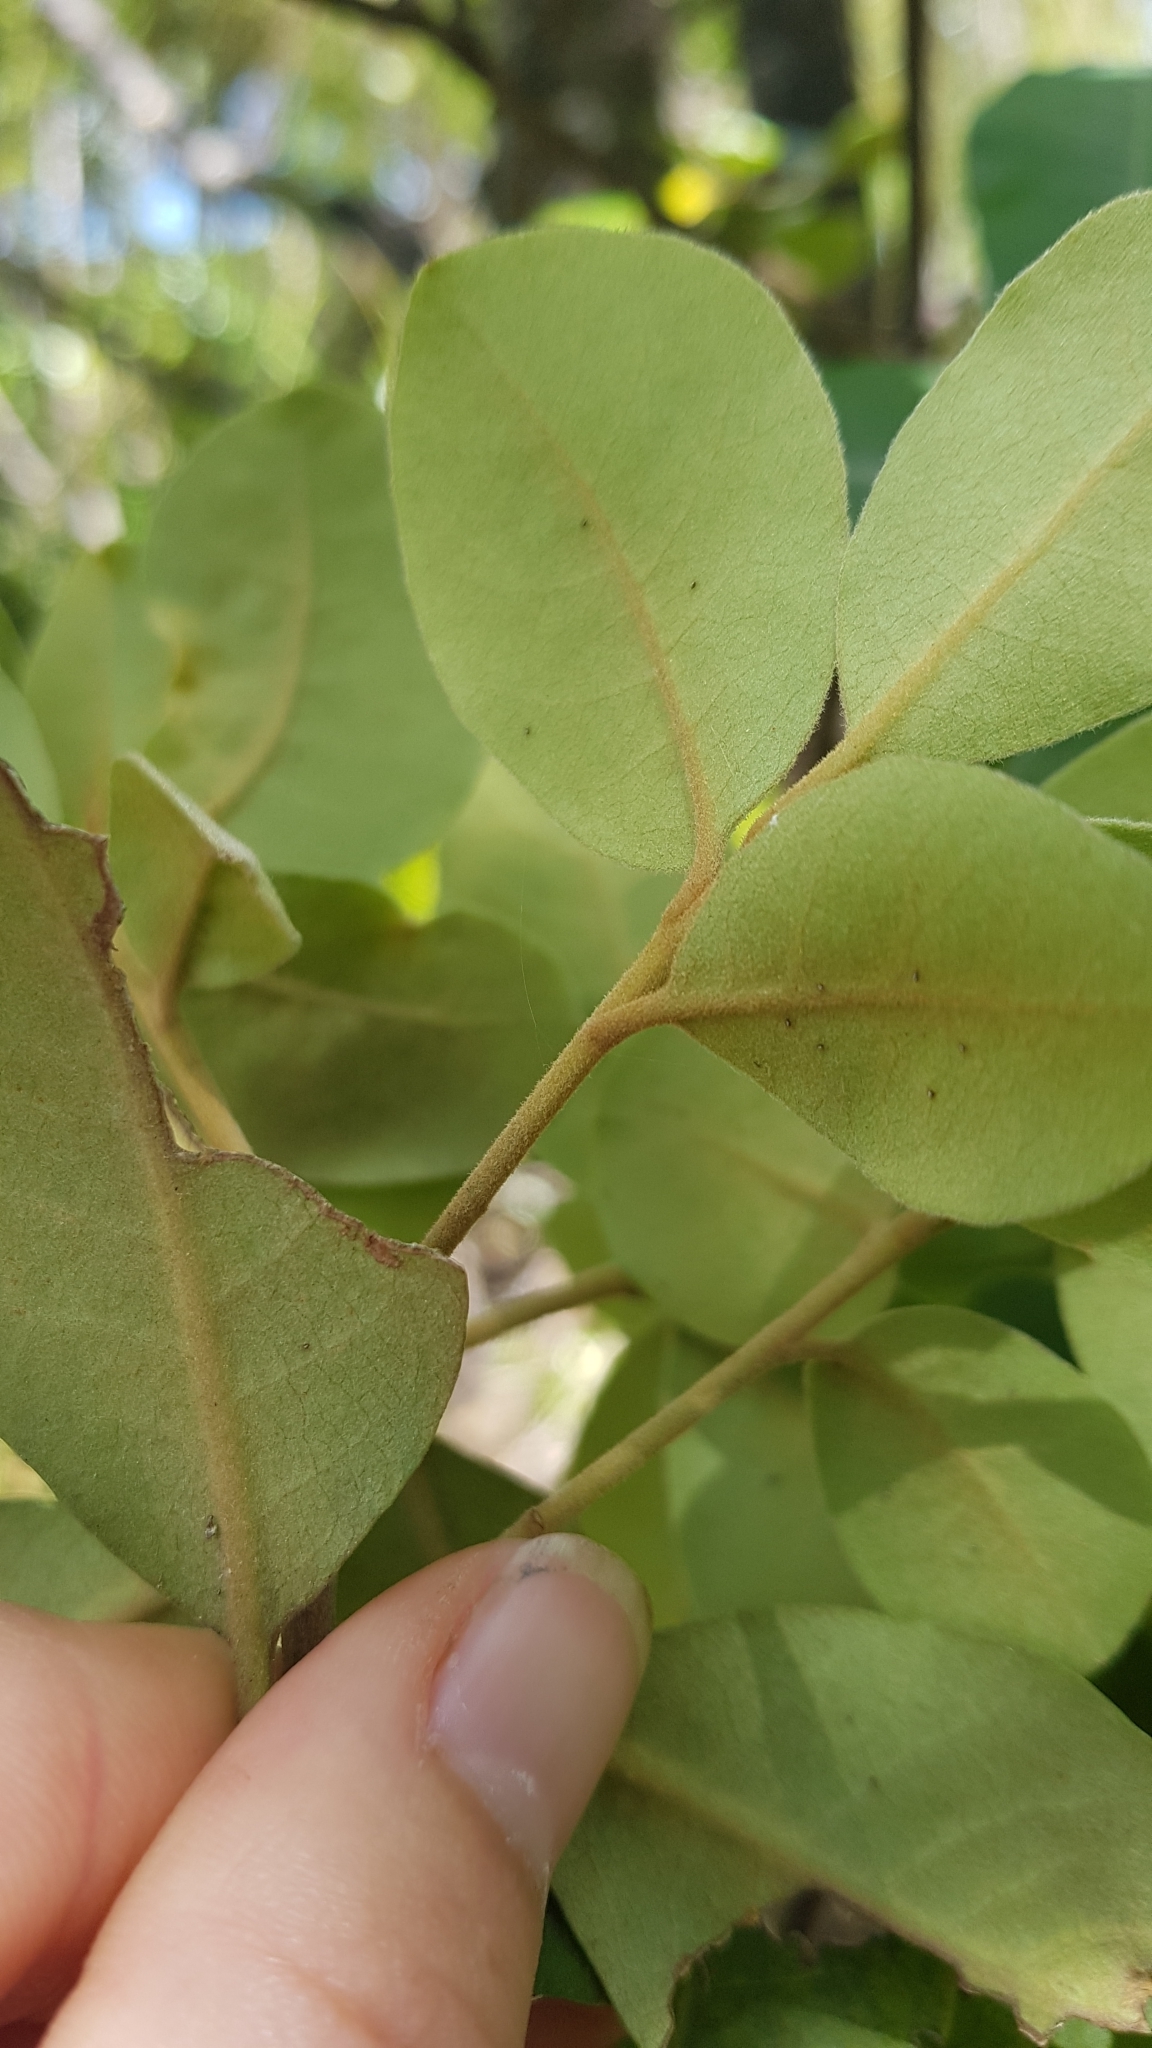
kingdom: Plantae
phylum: Tracheophyta
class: Magnoliopsida
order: Apiales
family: Pittosporaceae
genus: Pittosporum
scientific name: Pittosporum ellipticum
